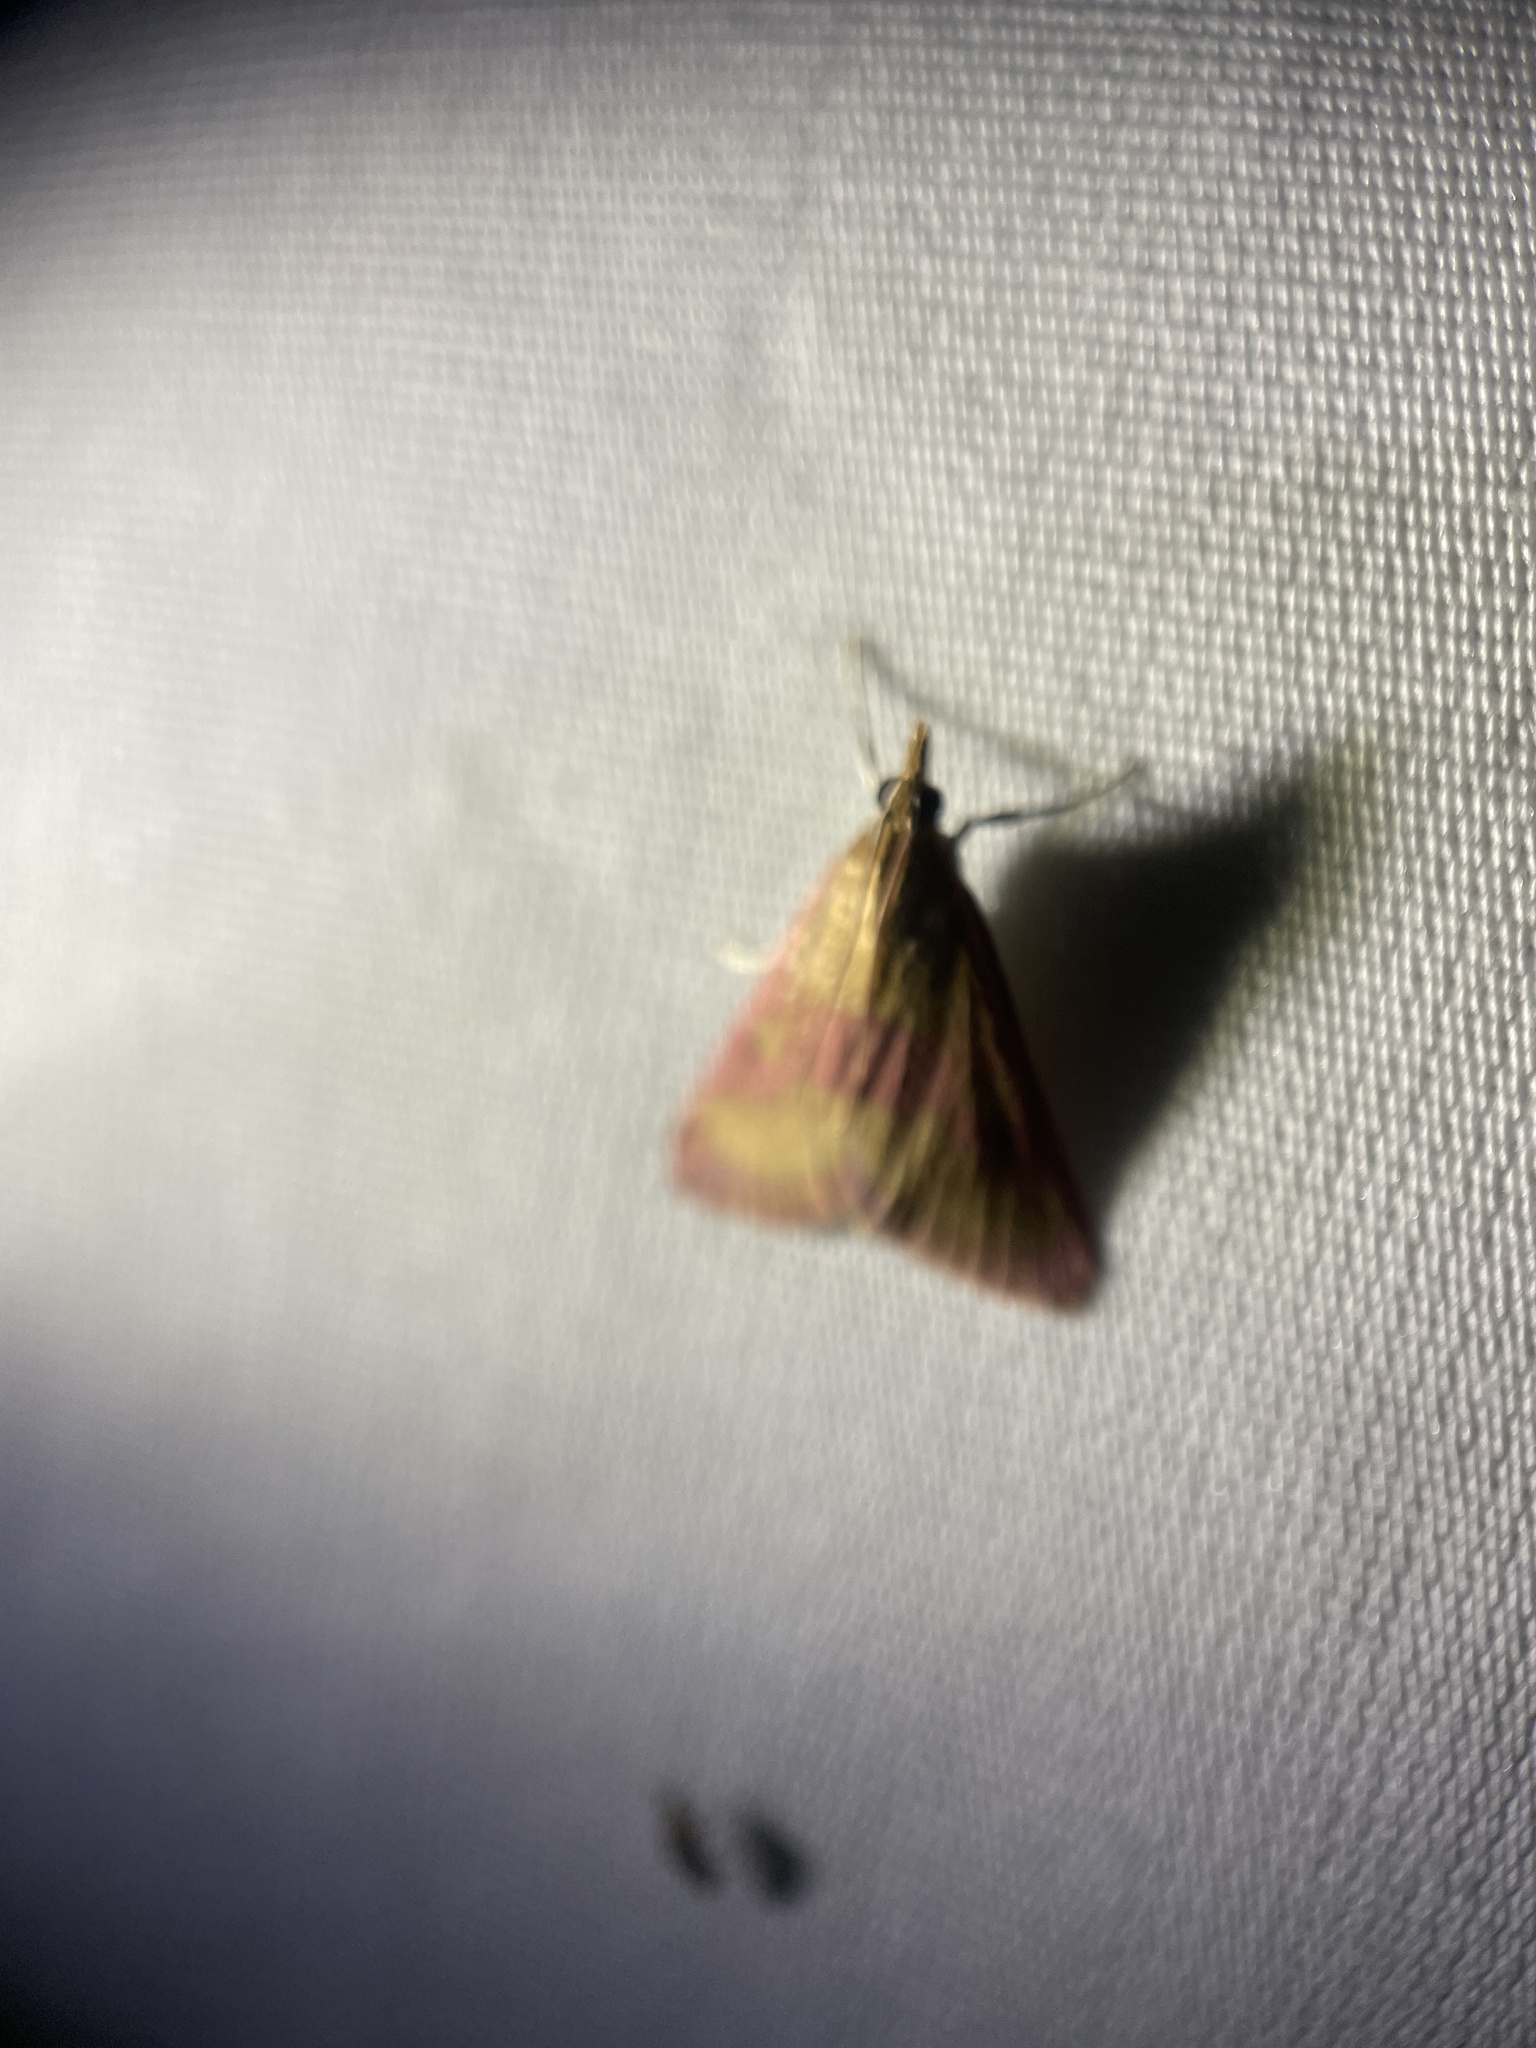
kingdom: Animalia
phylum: Arthropoda
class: Insecta
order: Lepidoptera
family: Crambidae
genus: Pyrausta
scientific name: Pyrausta laticlavia
